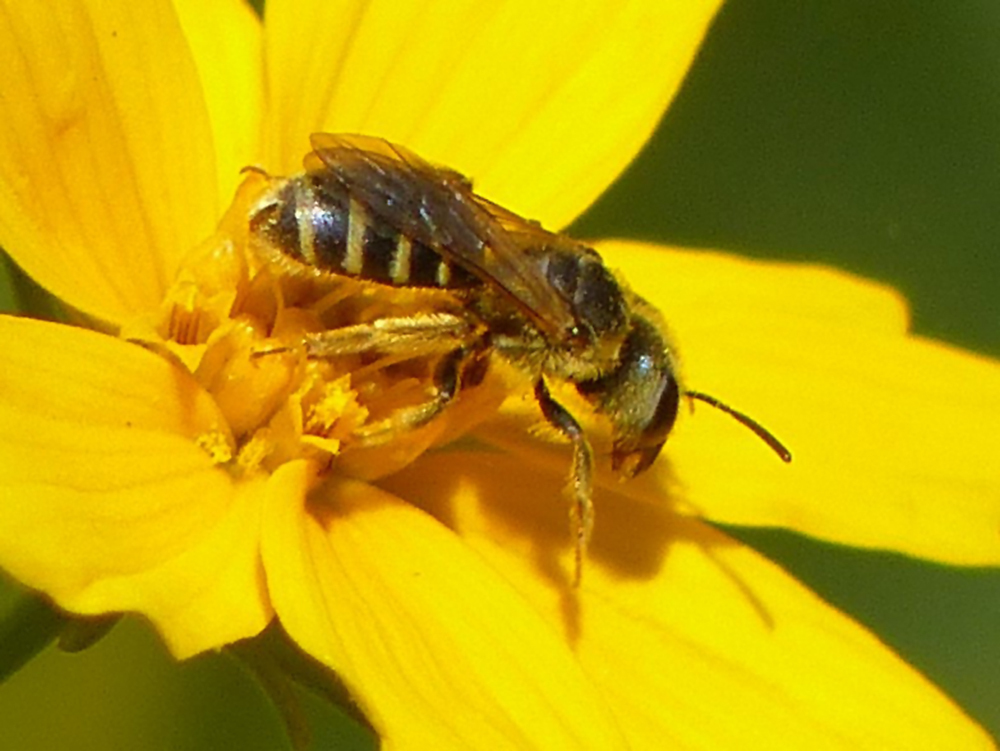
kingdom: Animalia
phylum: Arthropoda
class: Insecta
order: Hymenoptera
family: Halictidae
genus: Halictus
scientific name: Halictus ligatus
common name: Ligated furrow bee
